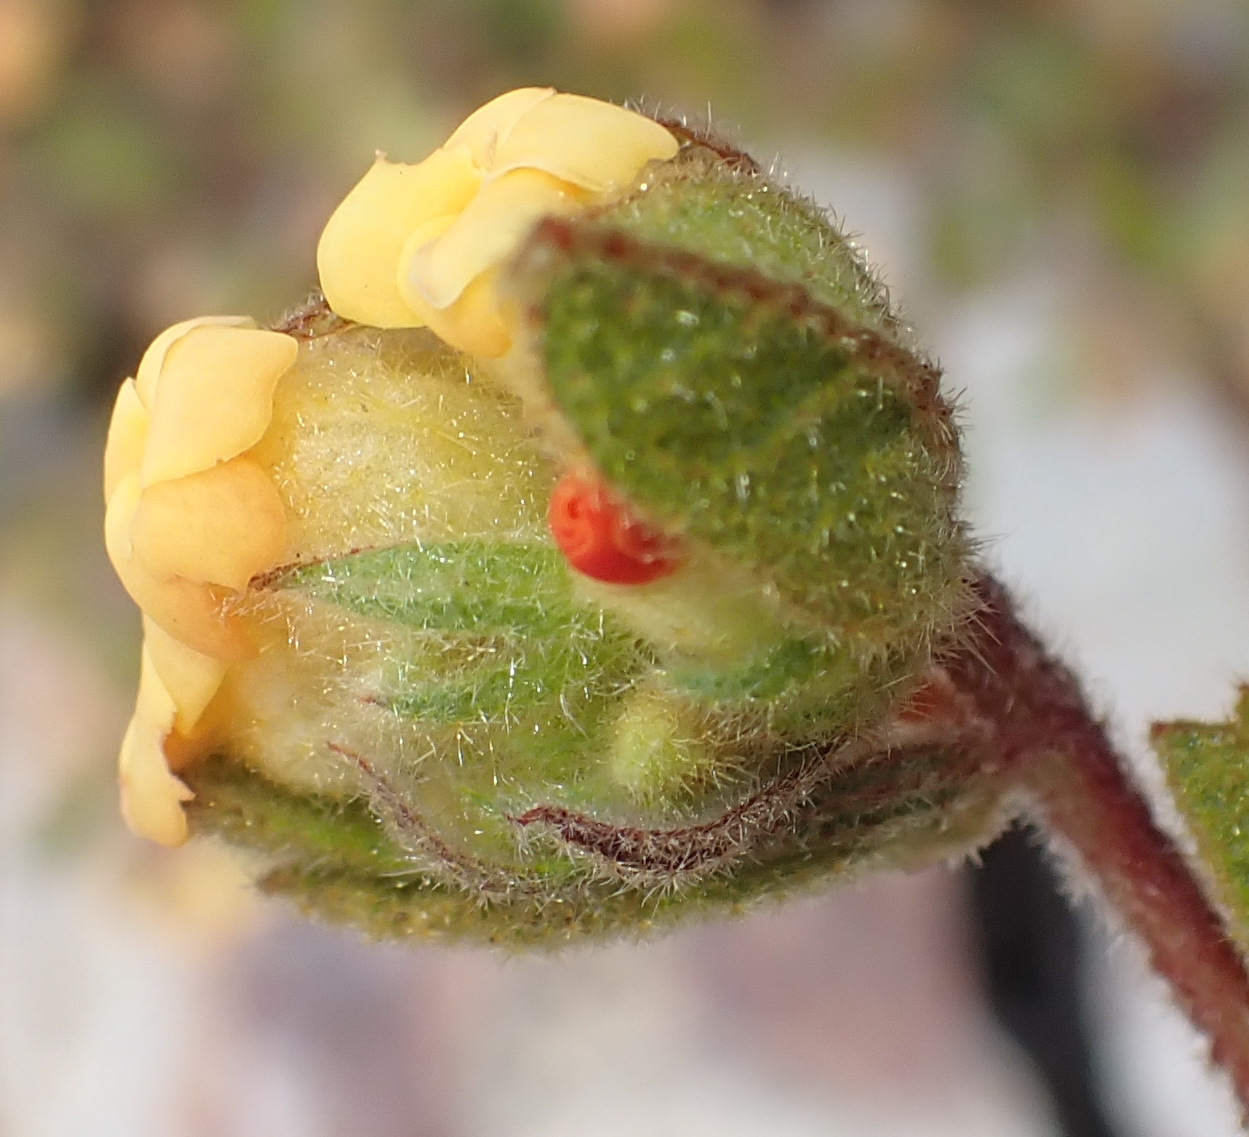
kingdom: Plantae
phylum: Tracheophyta
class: Magnoliopsida
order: Malvales
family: Malvaceae
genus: Hermannia
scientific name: Hermannia salviifolia
